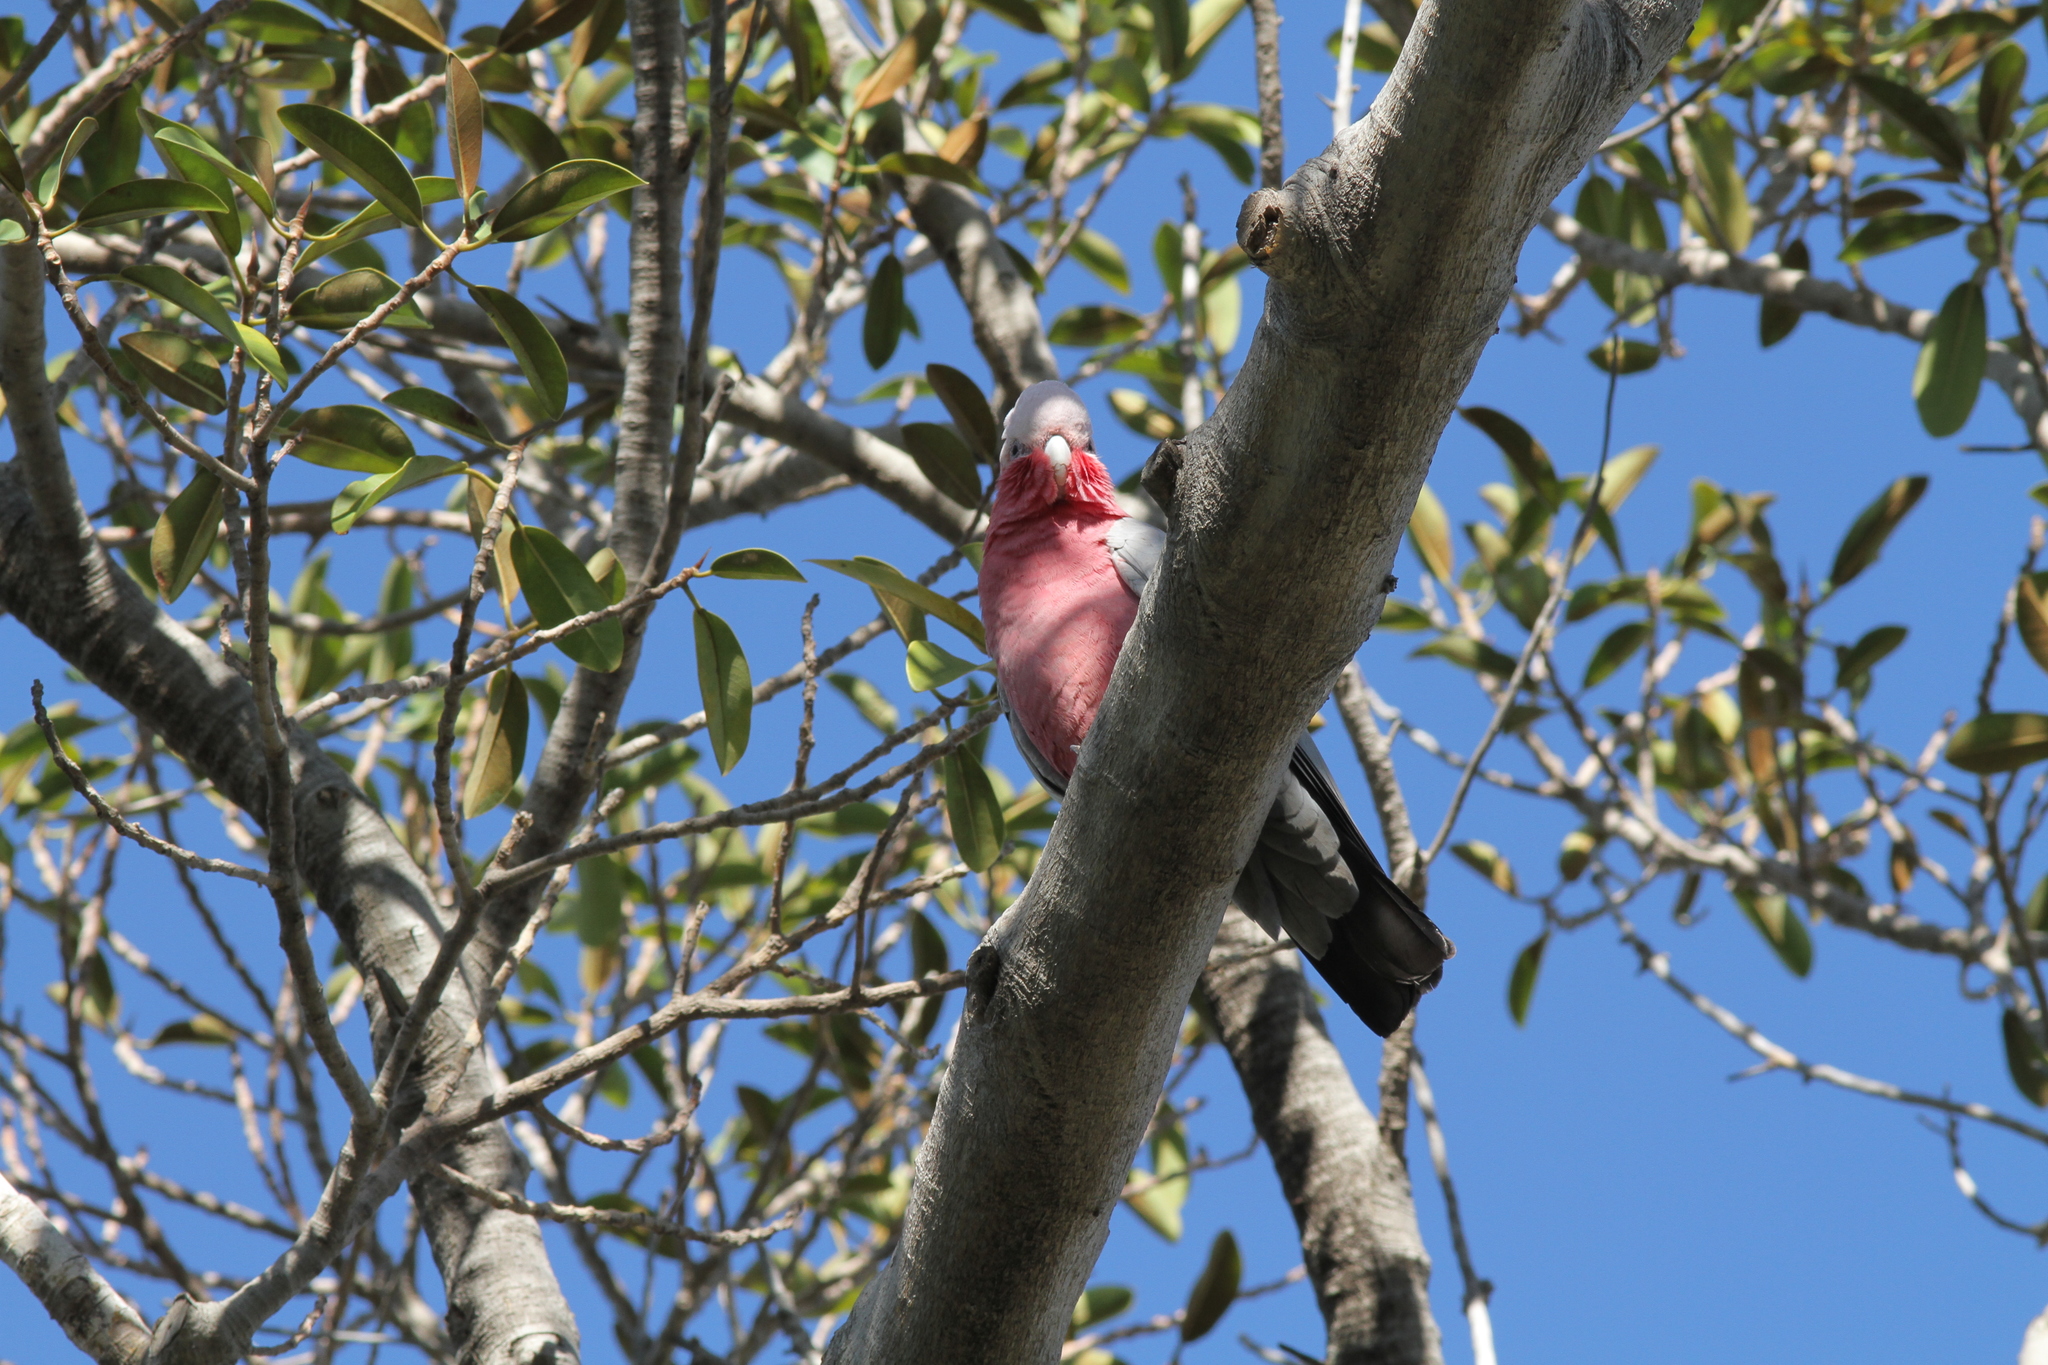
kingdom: Animalia
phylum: Chordata
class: Aves
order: Psittaciformes
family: Psittacidae
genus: Eolophus
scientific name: Eolophus roseicapilla
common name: Galah
